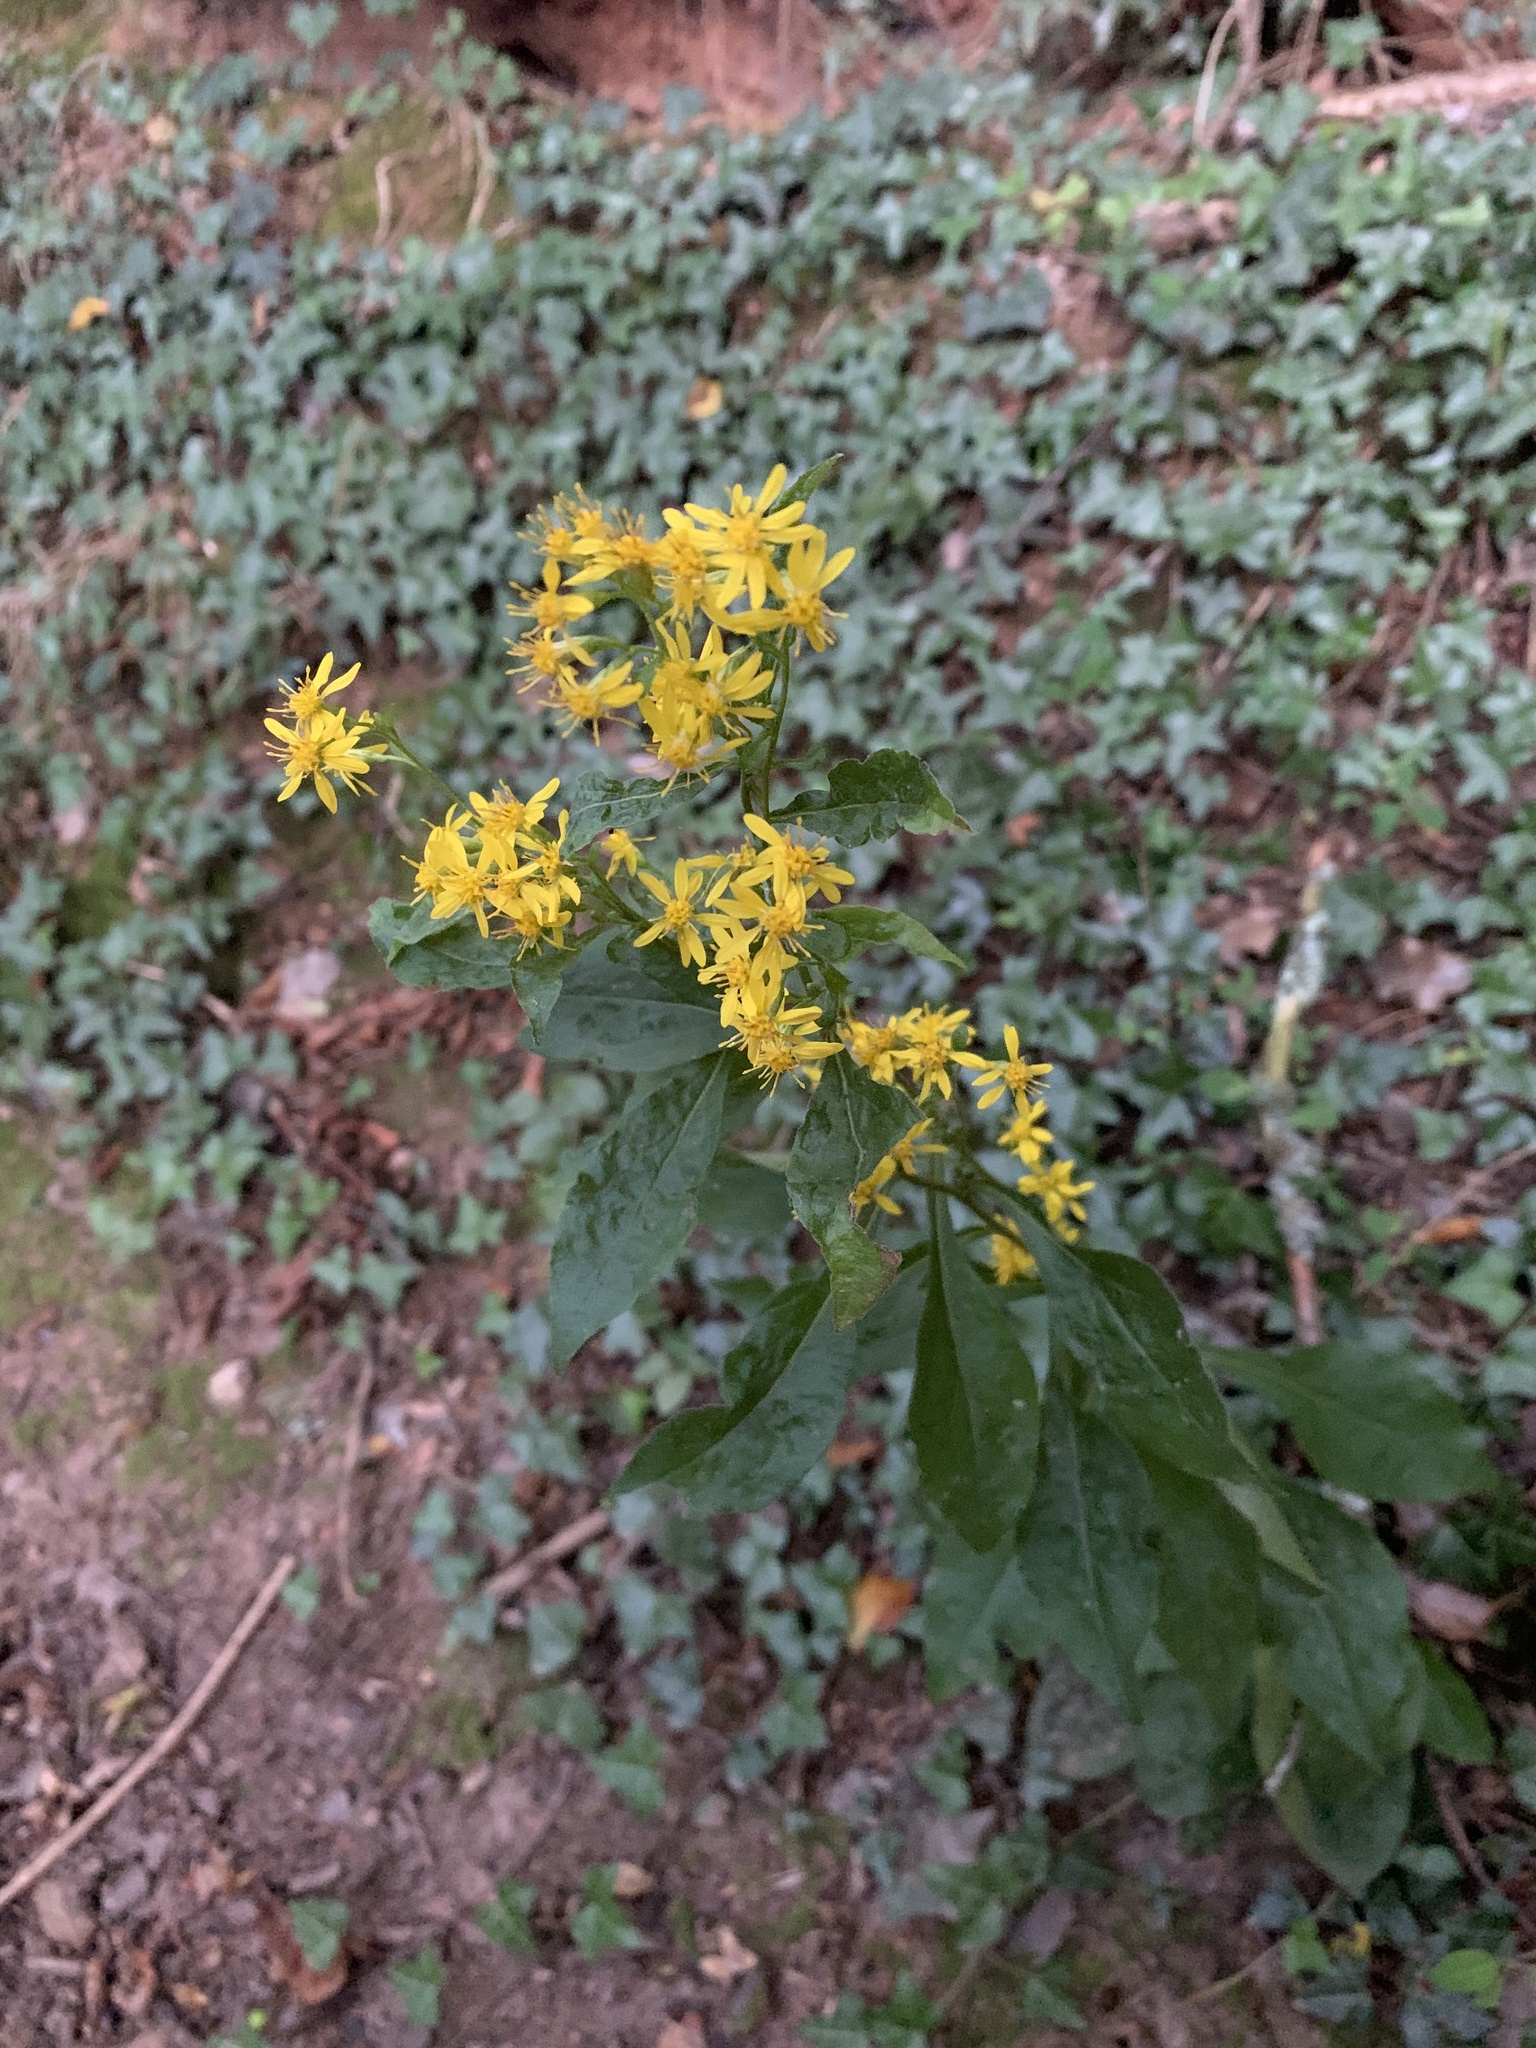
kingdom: Plantae
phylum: Tracheophyta
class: Magnoliopsida
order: Asterales
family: Asteraceae
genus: Solidago
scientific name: Solidago virgaurea
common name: Goldenrod
